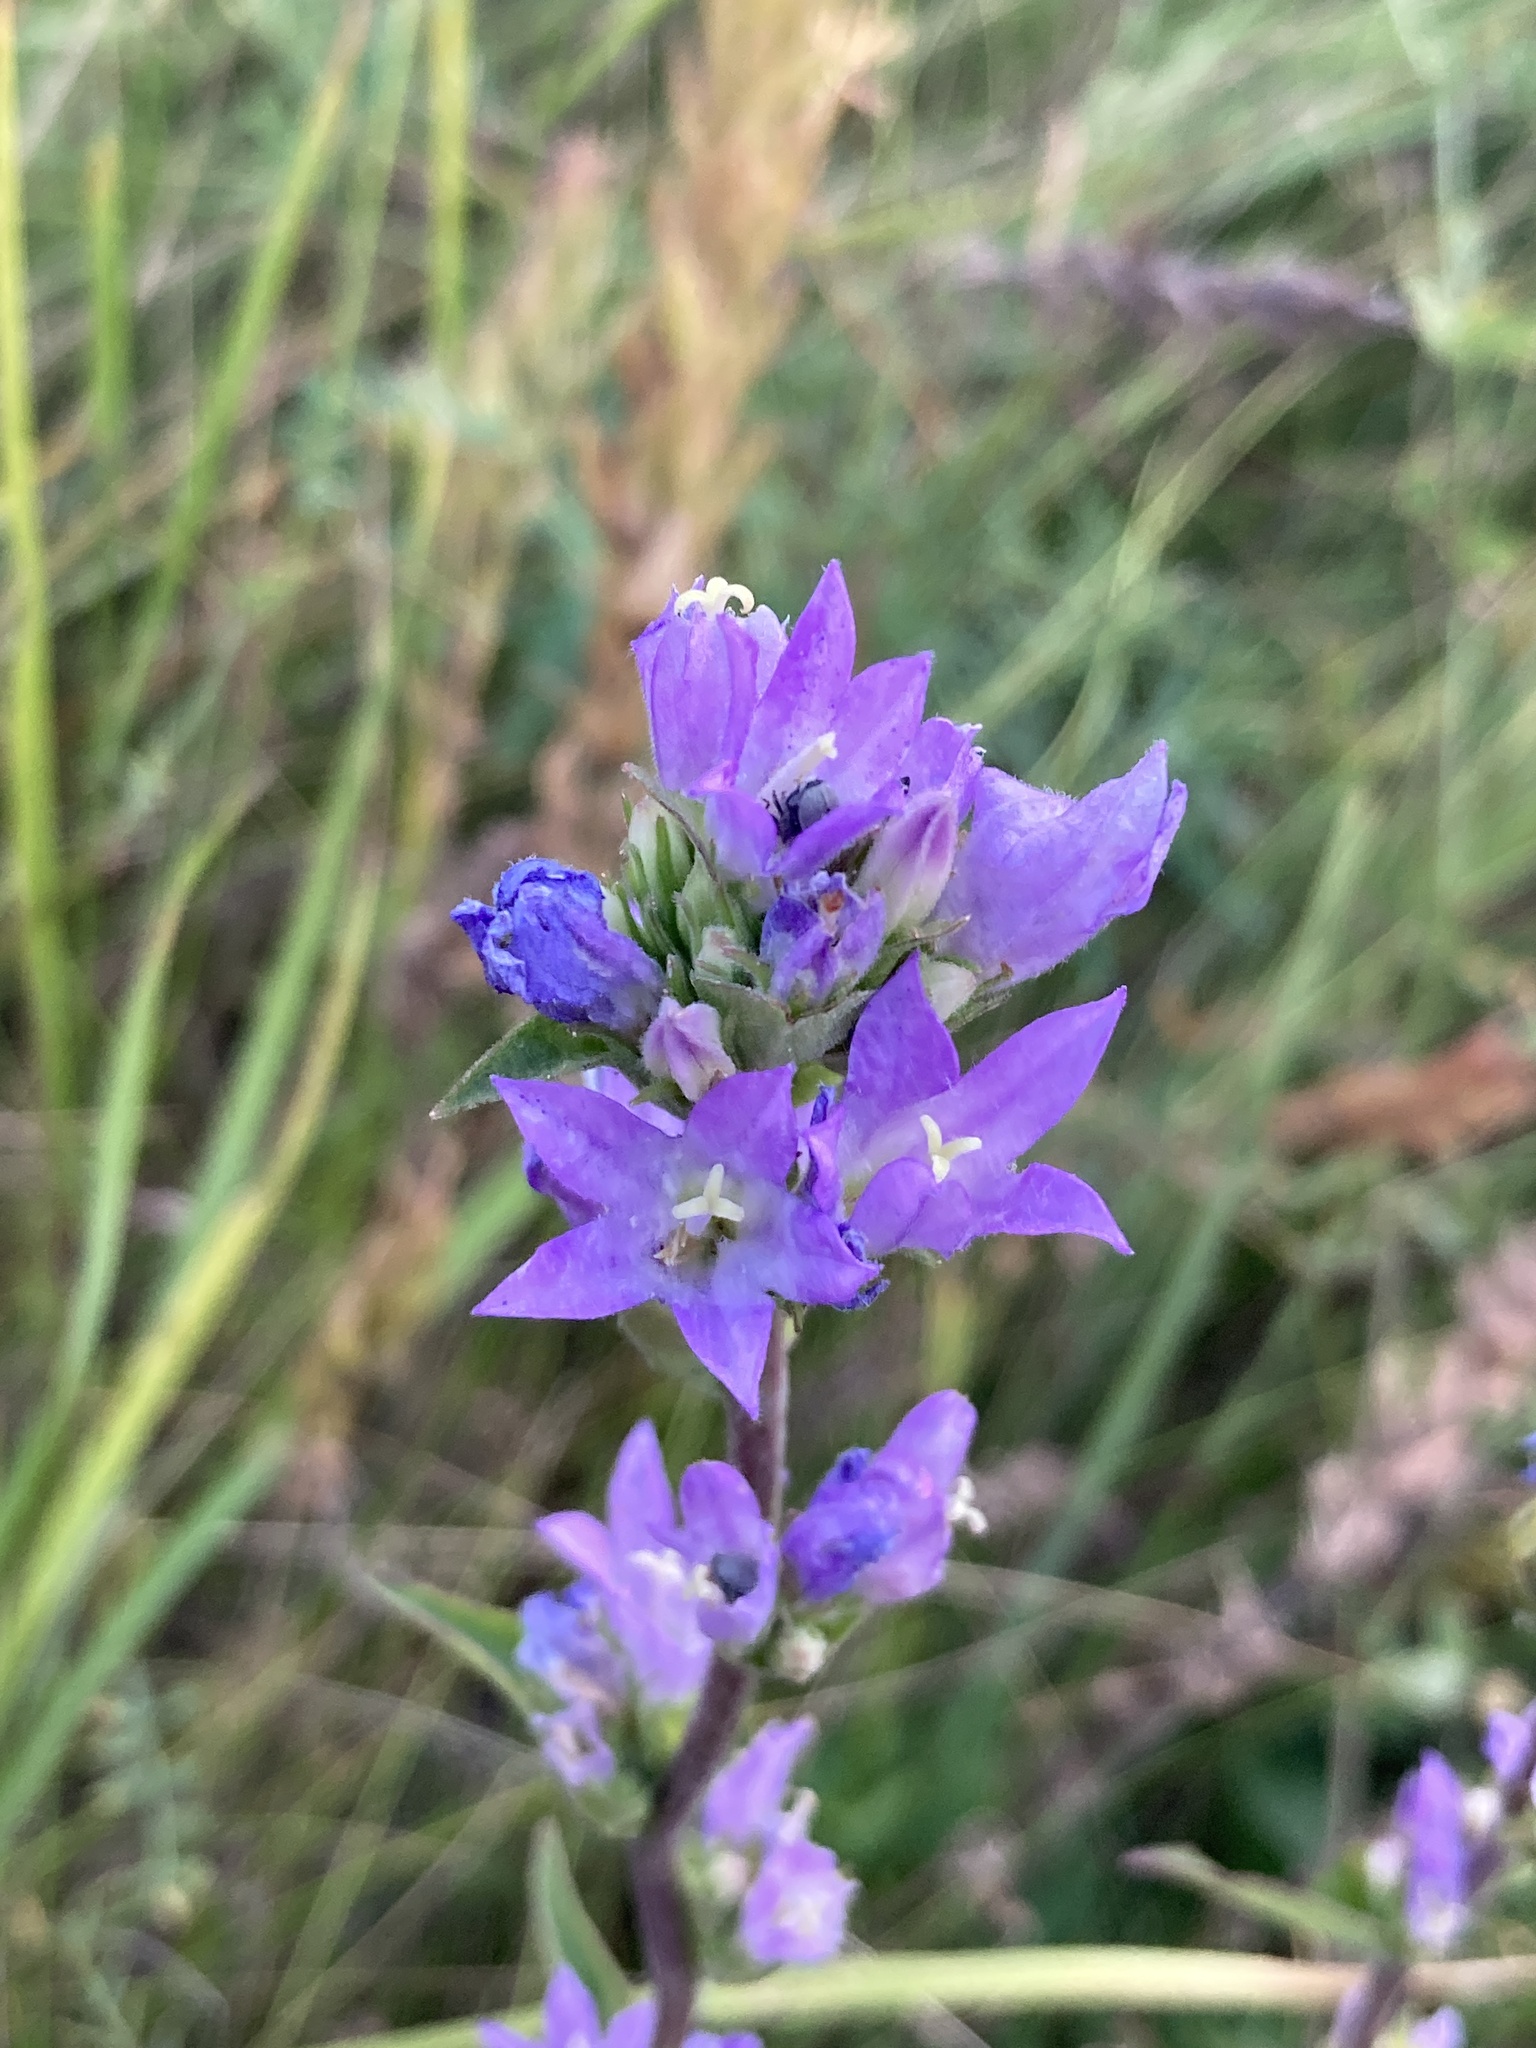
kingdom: Plantae
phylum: Tracheophyta
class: Magnoliopsida
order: Asterales
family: Campanulaceae
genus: Campanula
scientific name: Campanula glomerata
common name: Clustered bellflower
